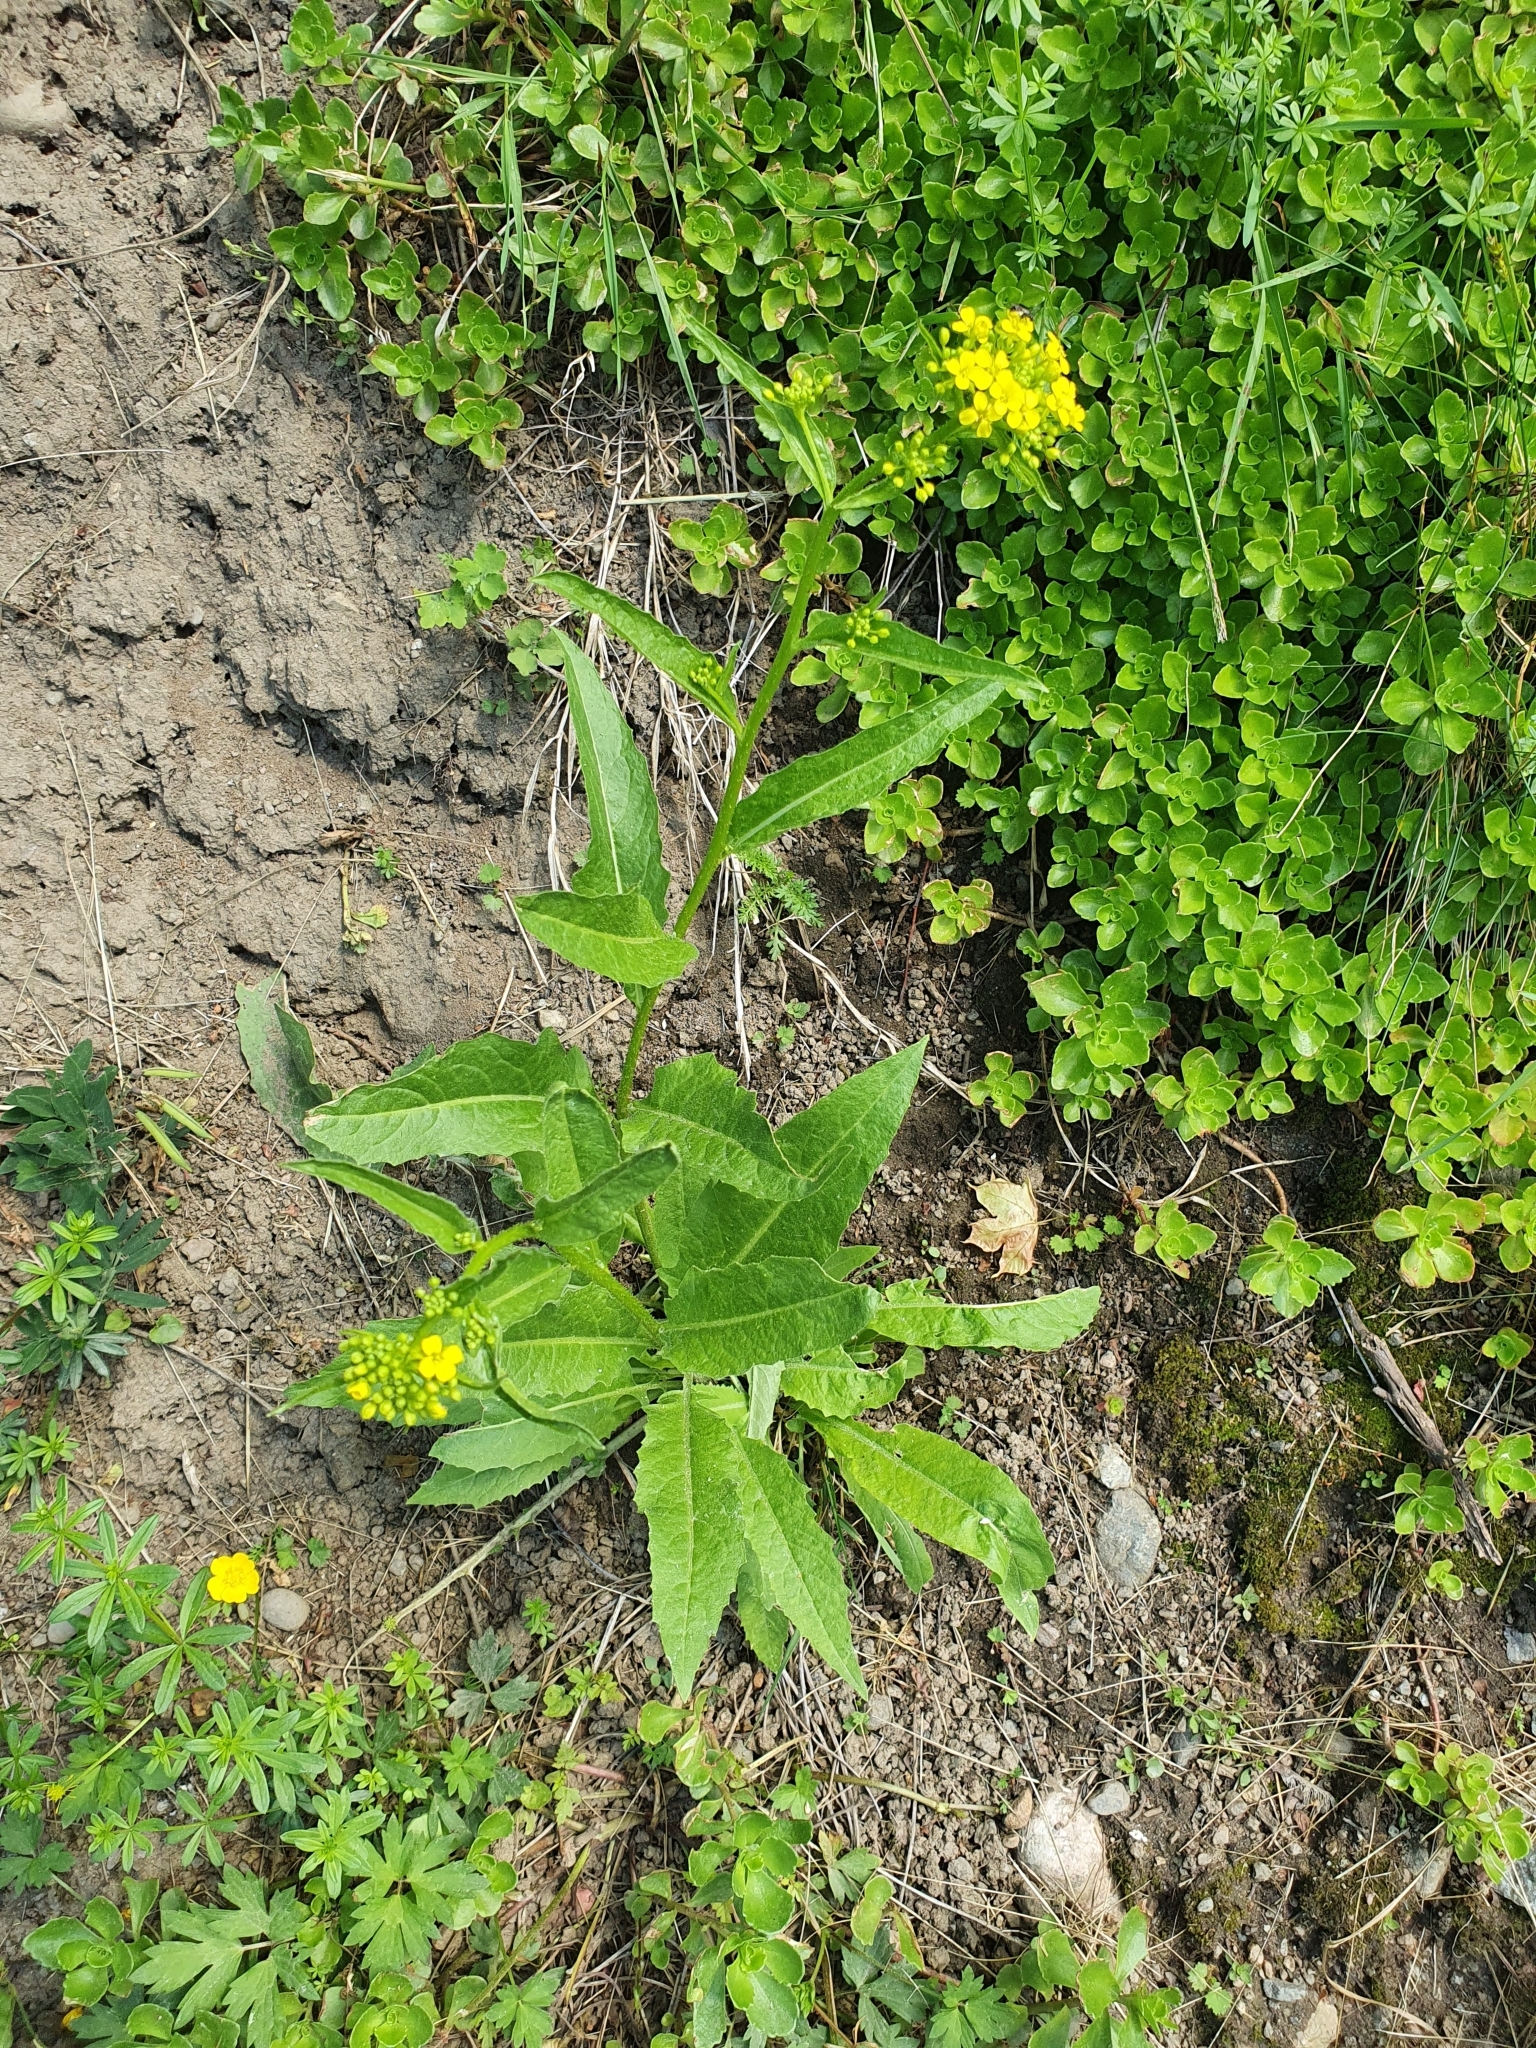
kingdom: Plantae
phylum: Tracheophyta
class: Magnoliopsida
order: Brassicales
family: Brassicaceae
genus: Bunias
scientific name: Bunias orientalis
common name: Warty-cabbage
